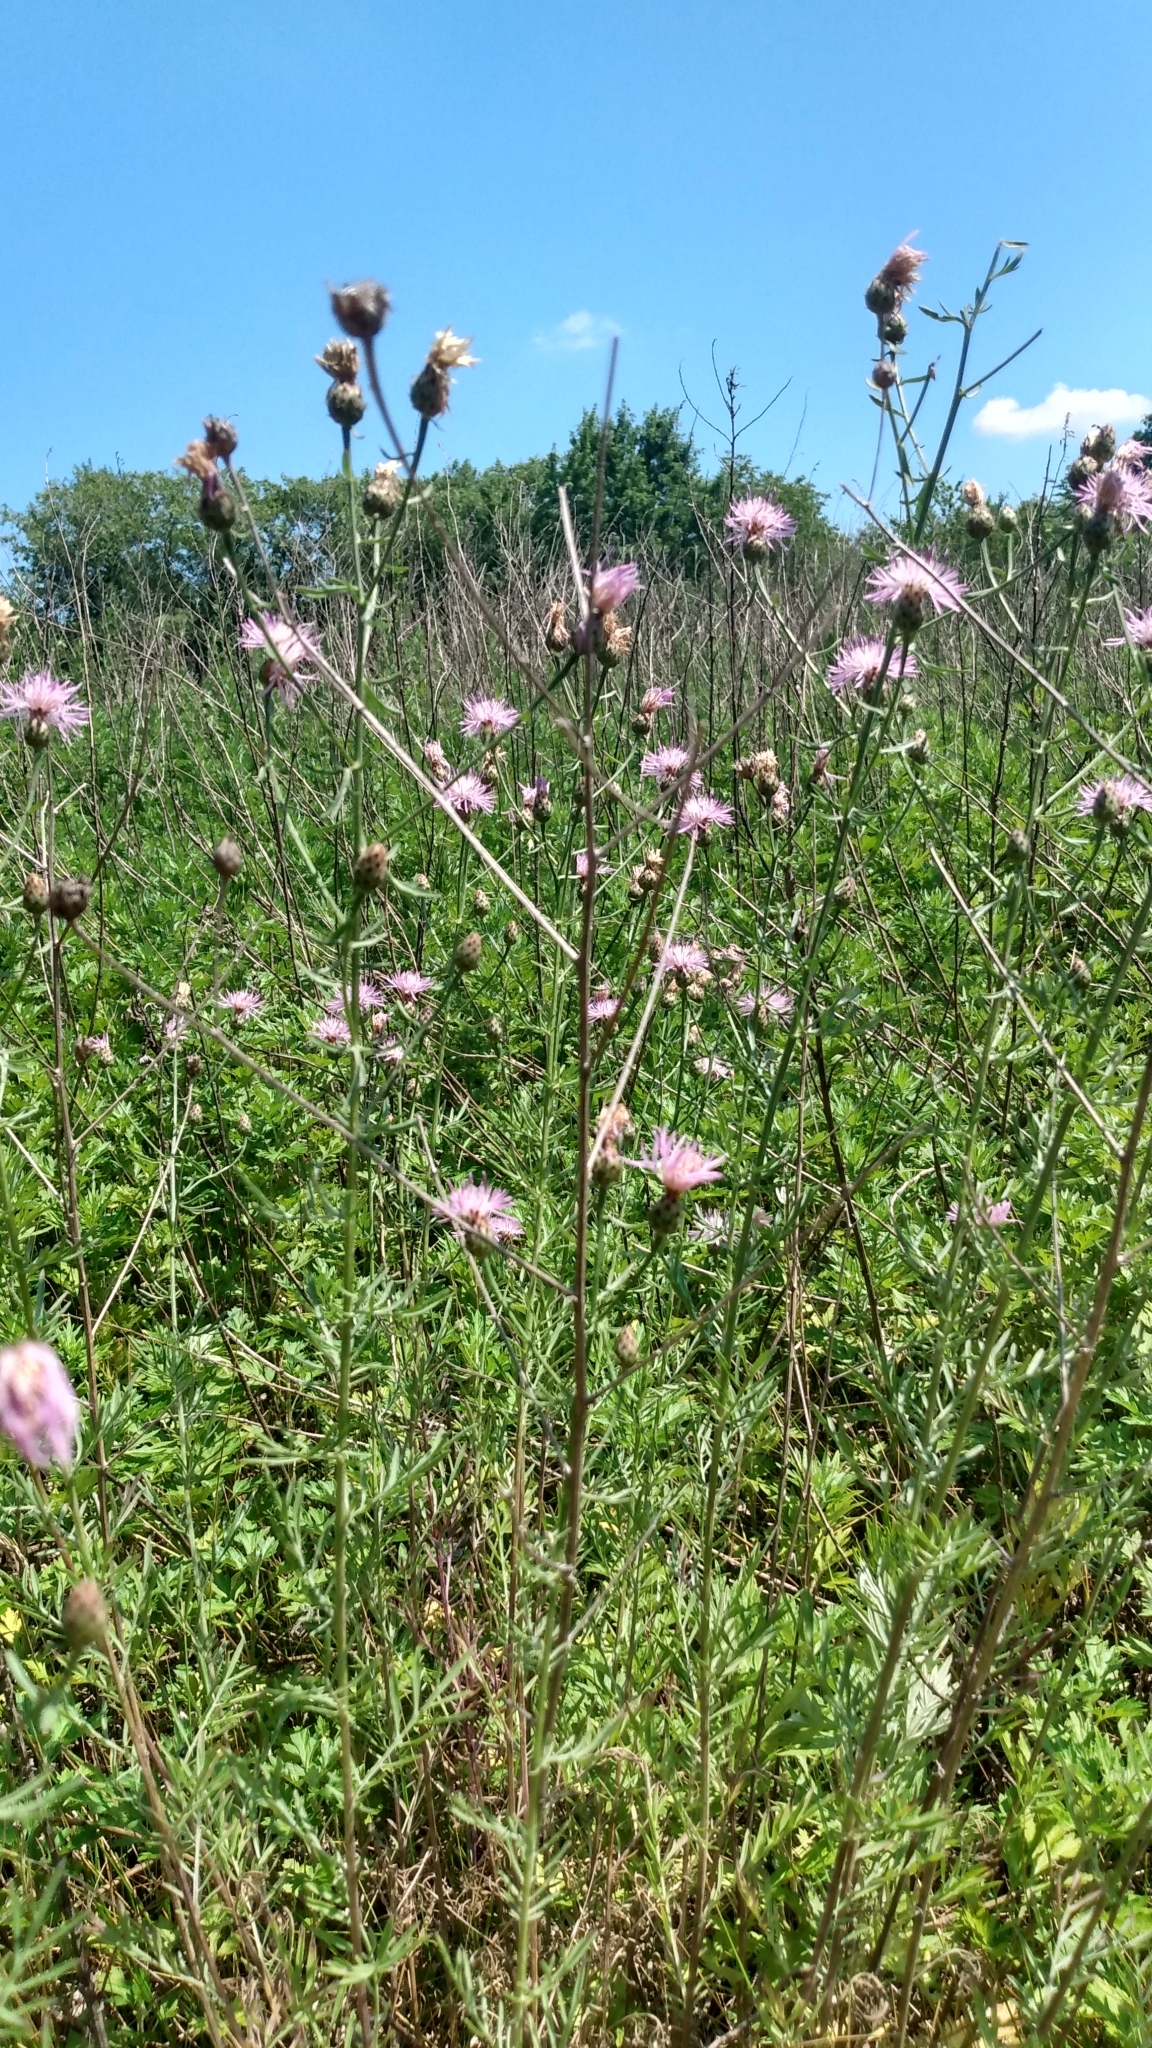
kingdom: Plantae
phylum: Tracheophyta
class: Magnoliopsida
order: Asterales
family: Asteraceae
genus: Cirsium
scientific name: Cirsium arvense
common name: Creeping thistle
